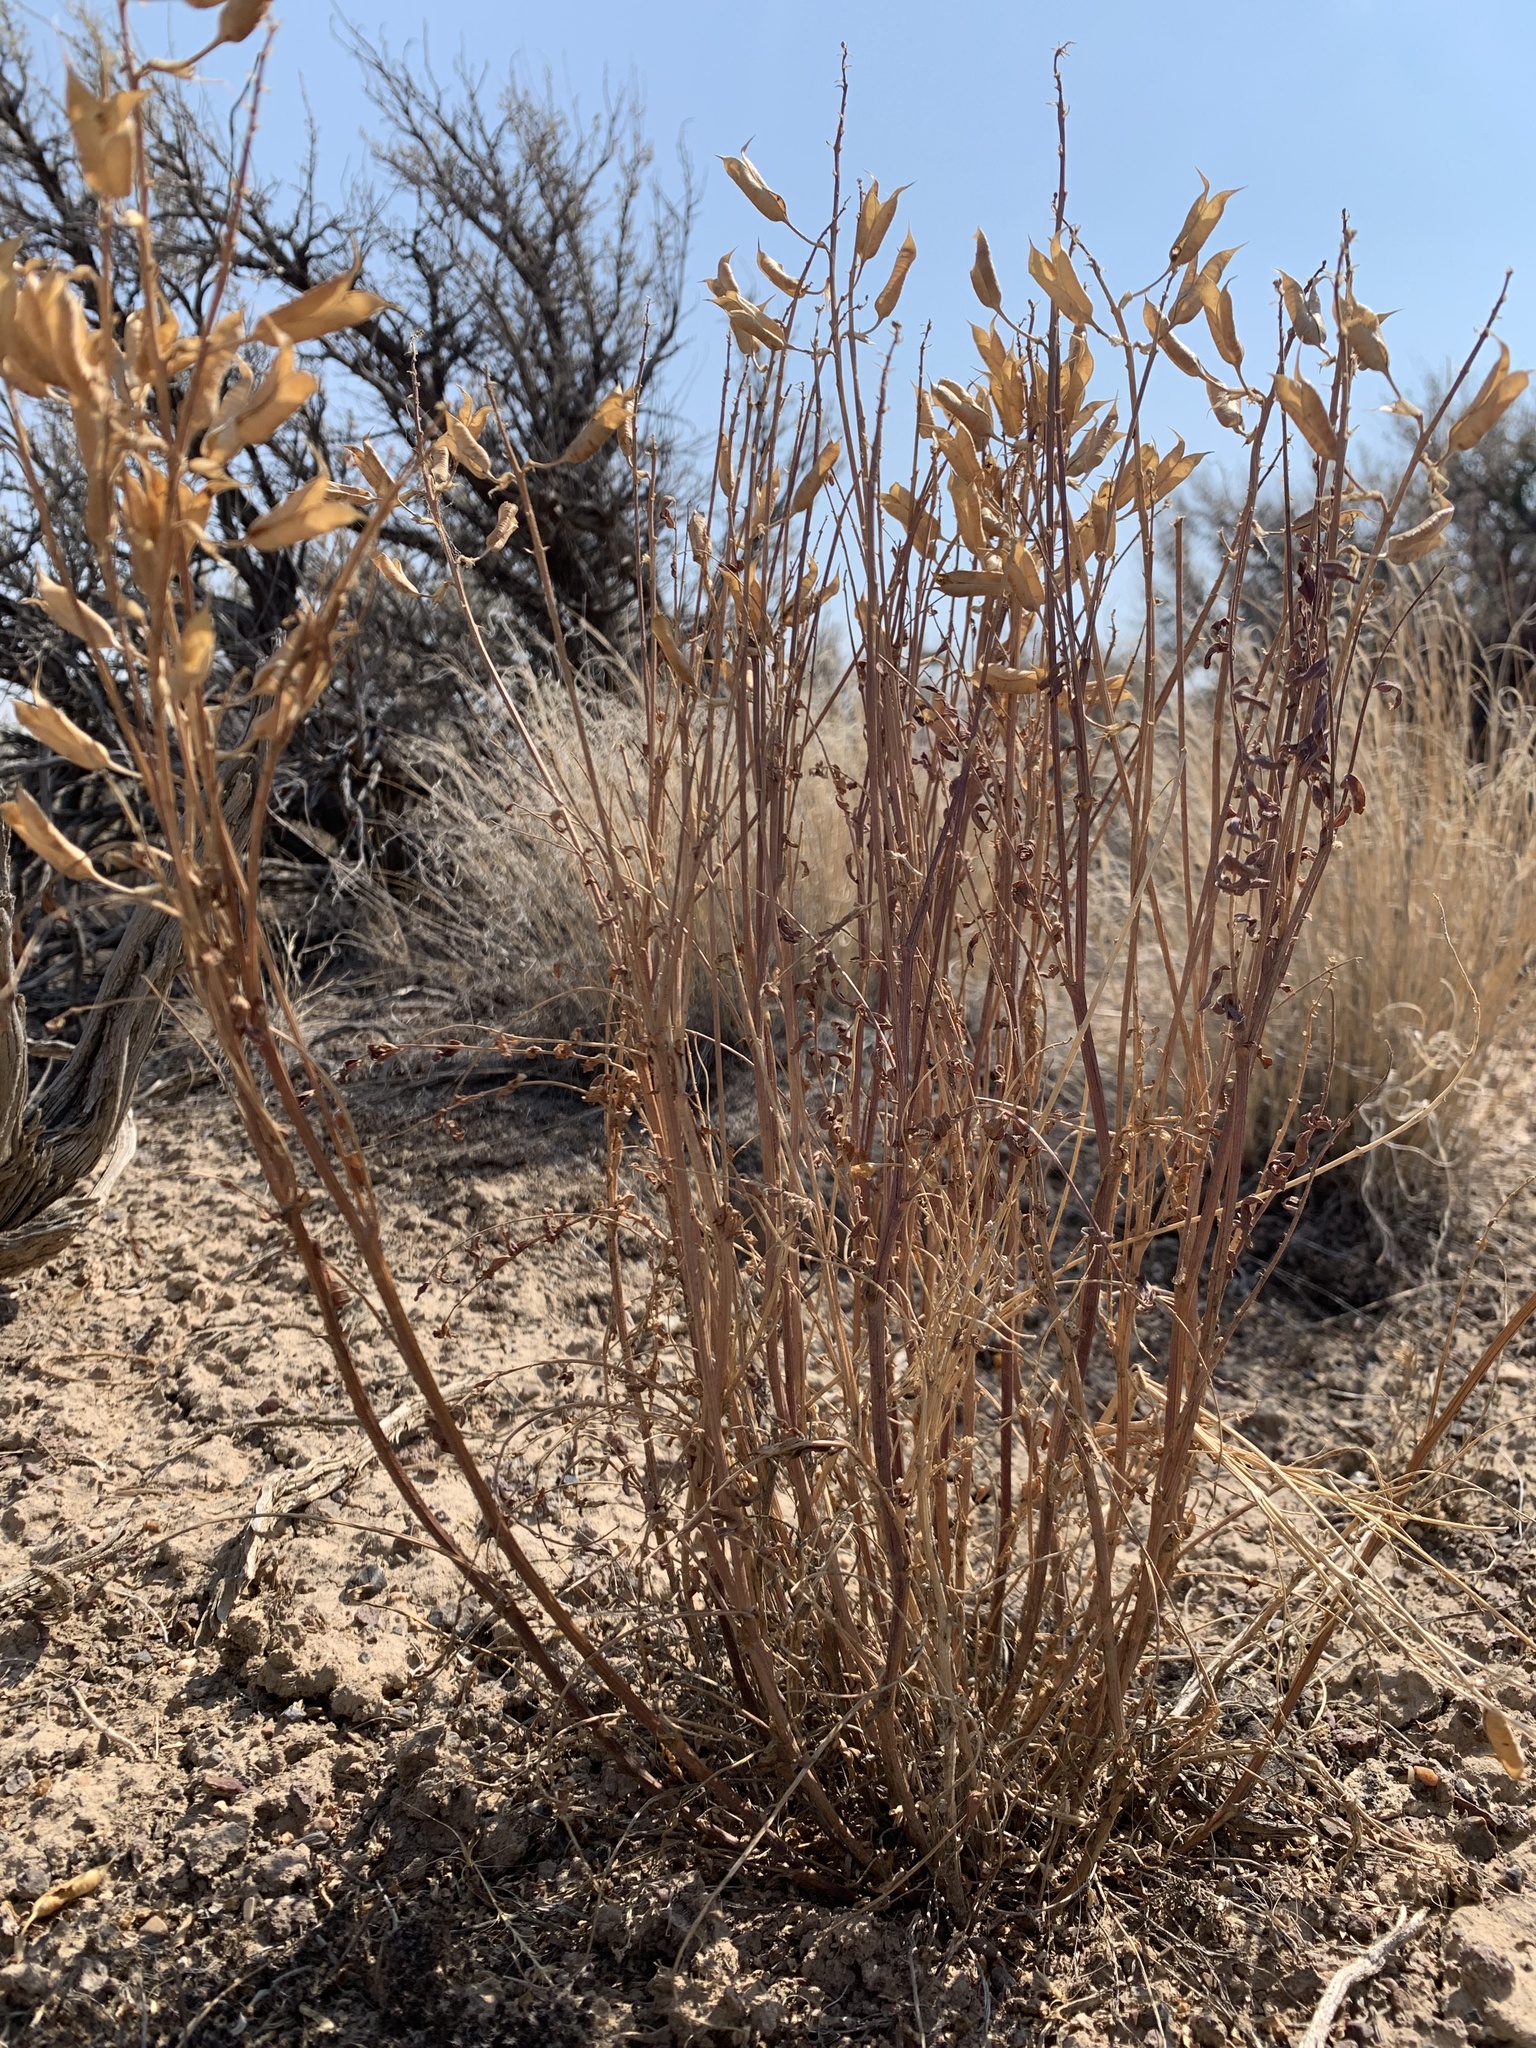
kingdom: Plantae
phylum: Tracheophyta
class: Magnoliopsida
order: Fabales
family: Fabaceae
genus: Astragalus
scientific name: Astragalus eremiticus
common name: Hermit milk-vetch
